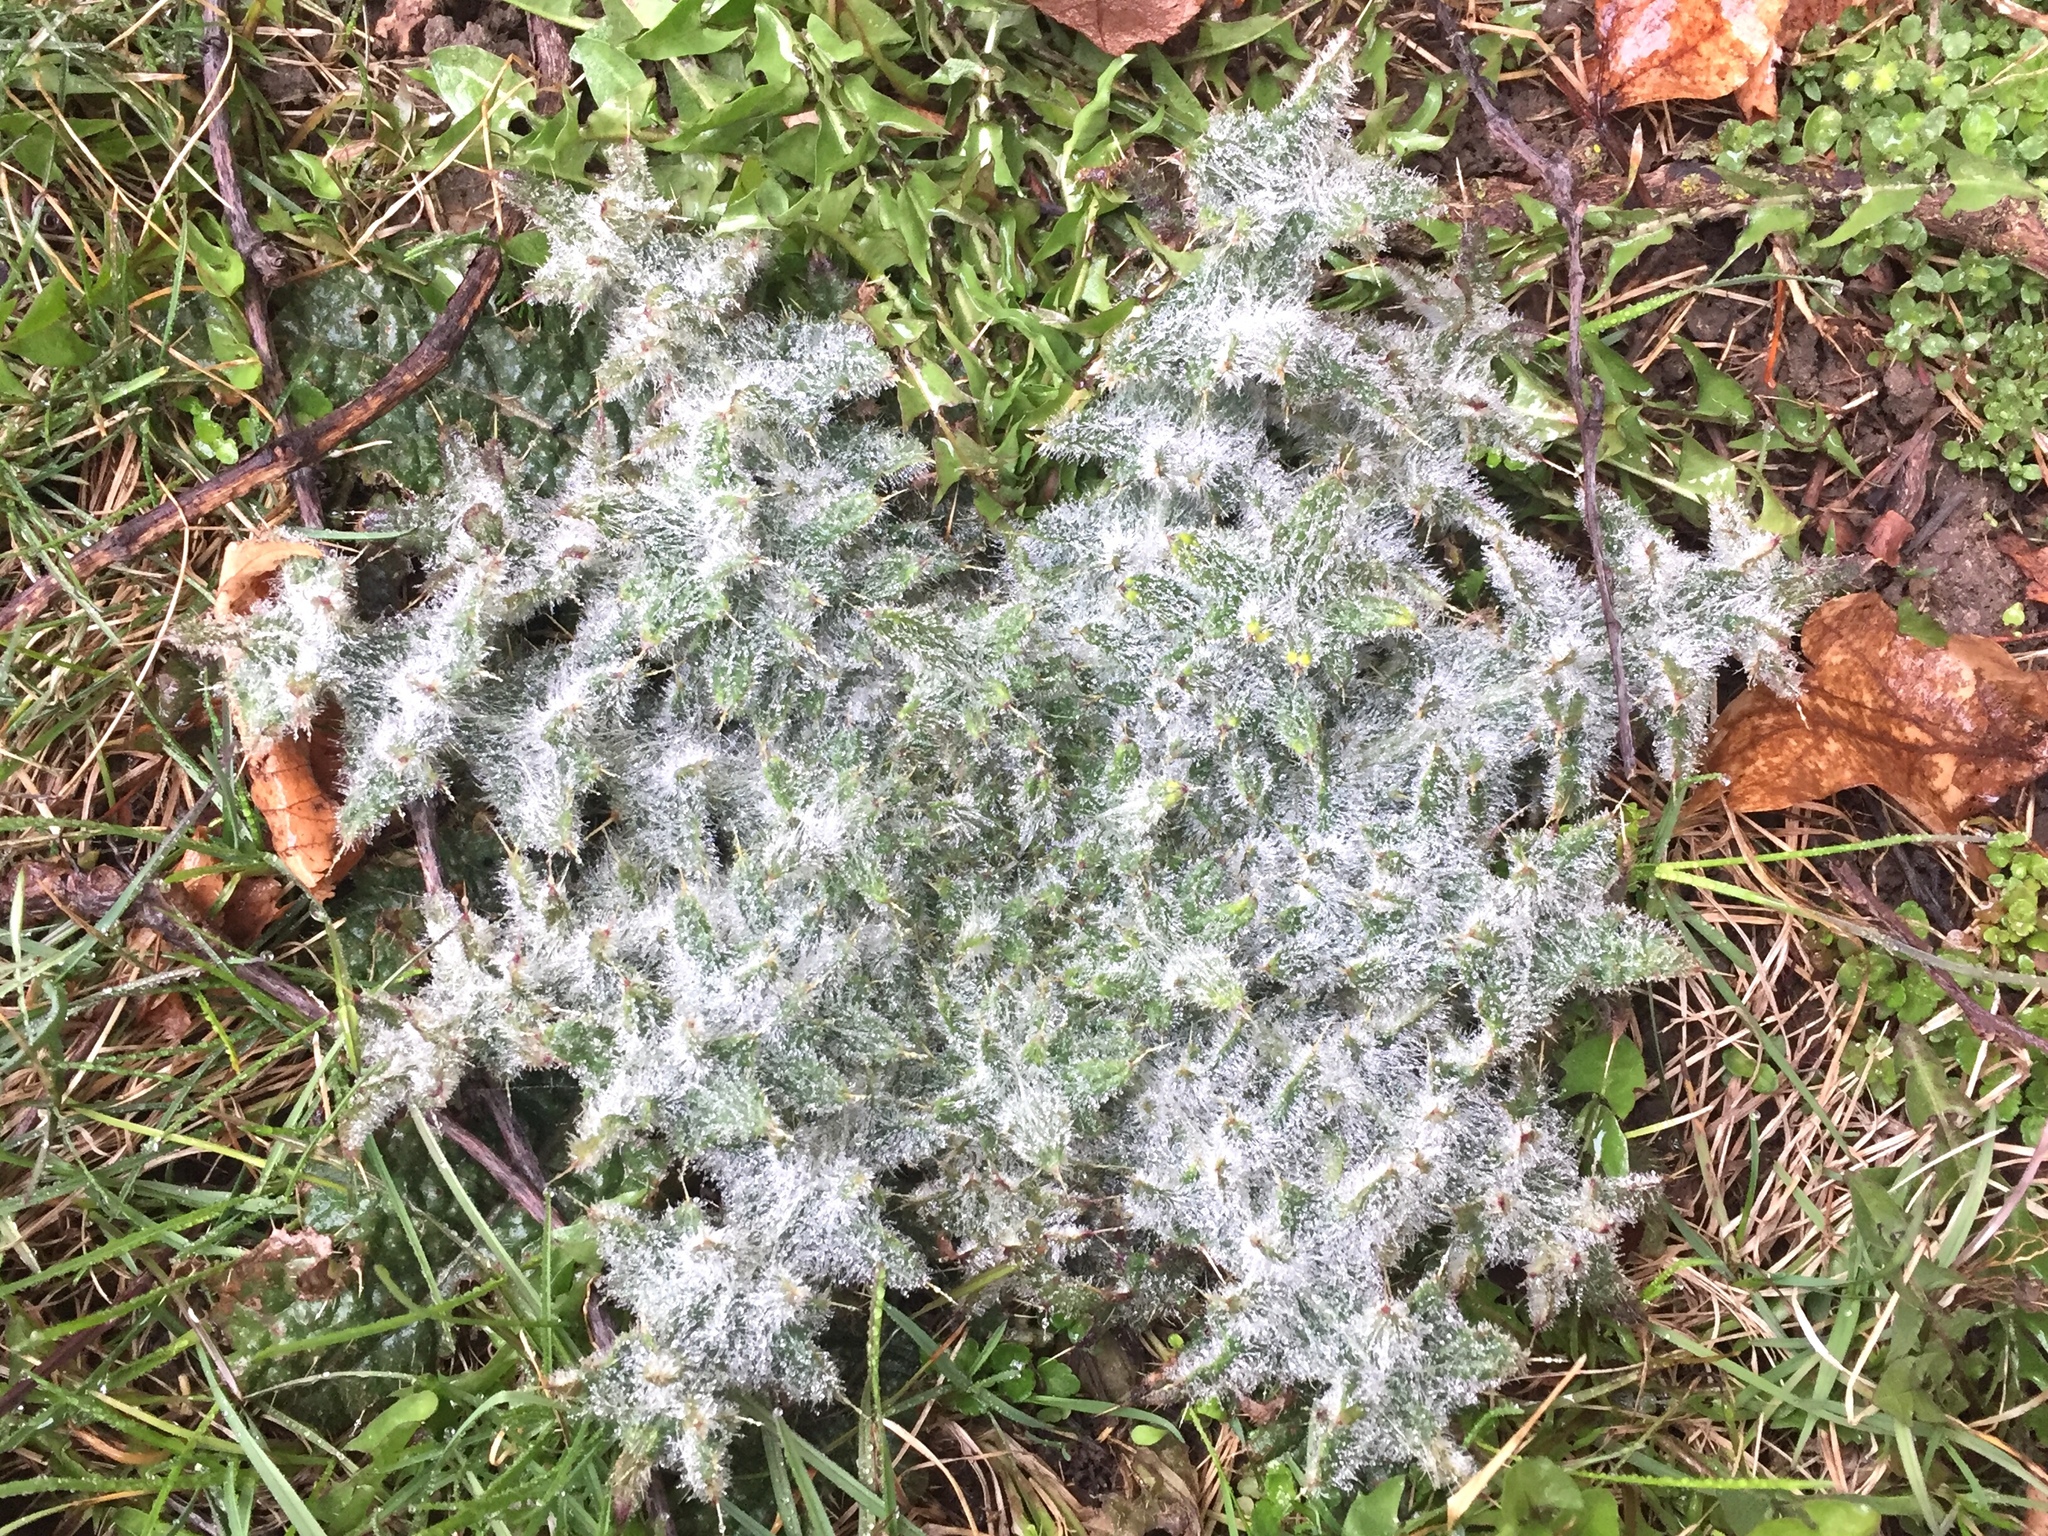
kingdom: Plantae
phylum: Tracheophyta
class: Magnoliopsida
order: Asterales
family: Asteraceae
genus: Cirsium
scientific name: Cirsium vulgare
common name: Bull thistle
